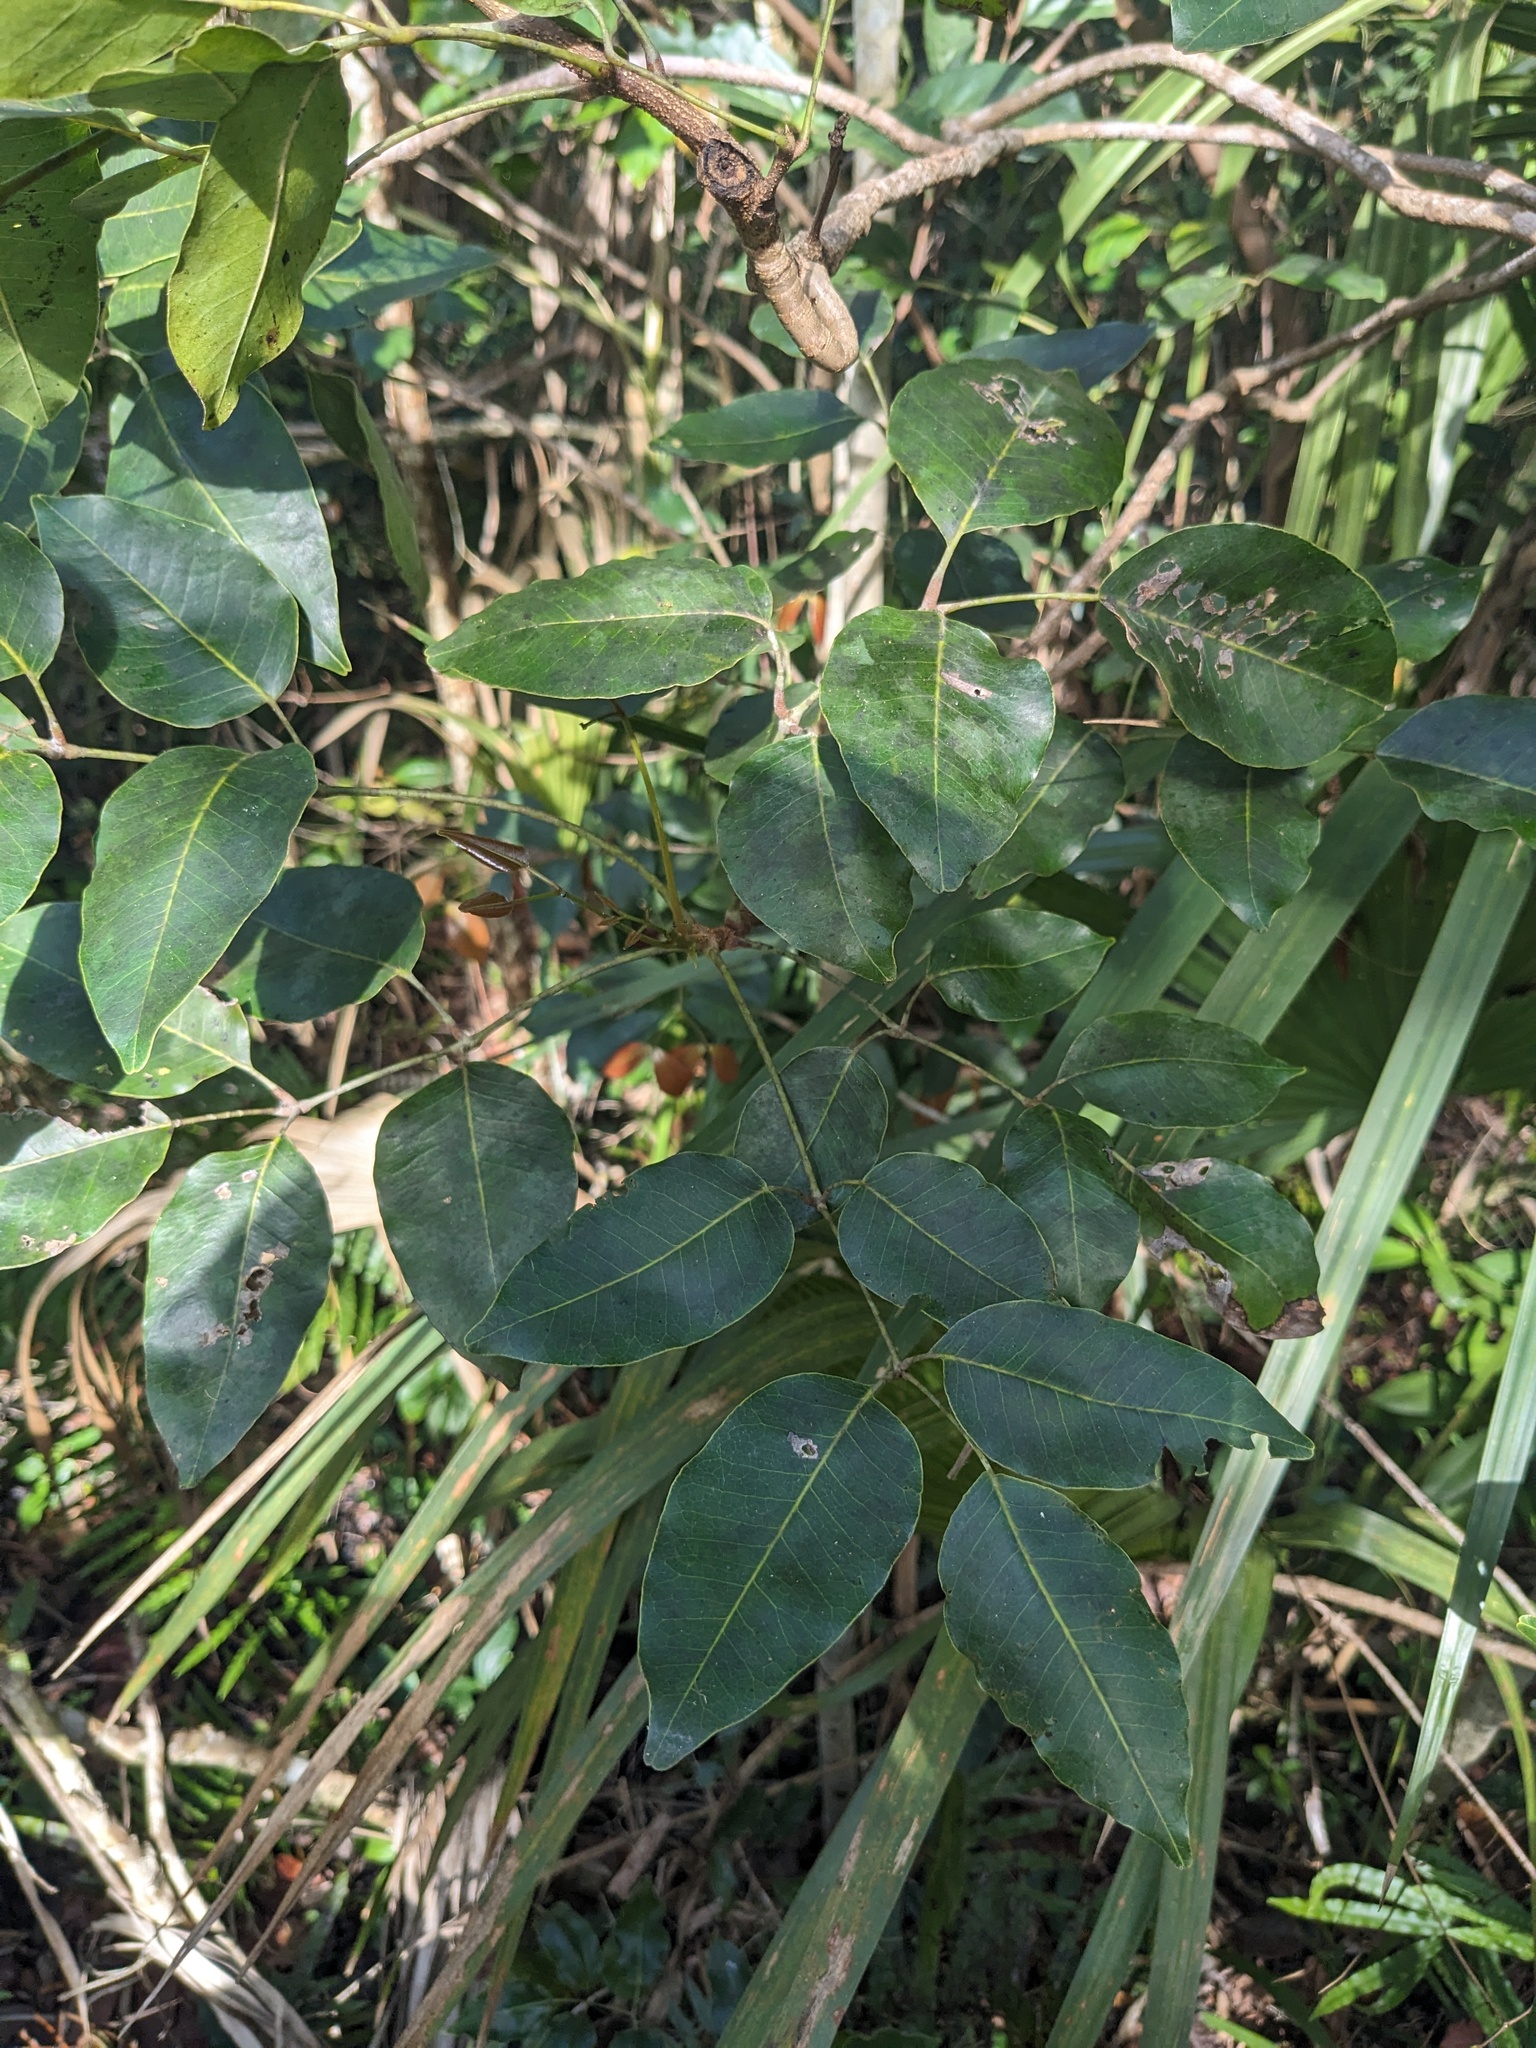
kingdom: Plantae
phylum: Tracheophyta
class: Magnoliopsida
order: Sapindales
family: Anacardiaceae
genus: Metopium
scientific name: Metopium toxiferum
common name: Florida poisontree
